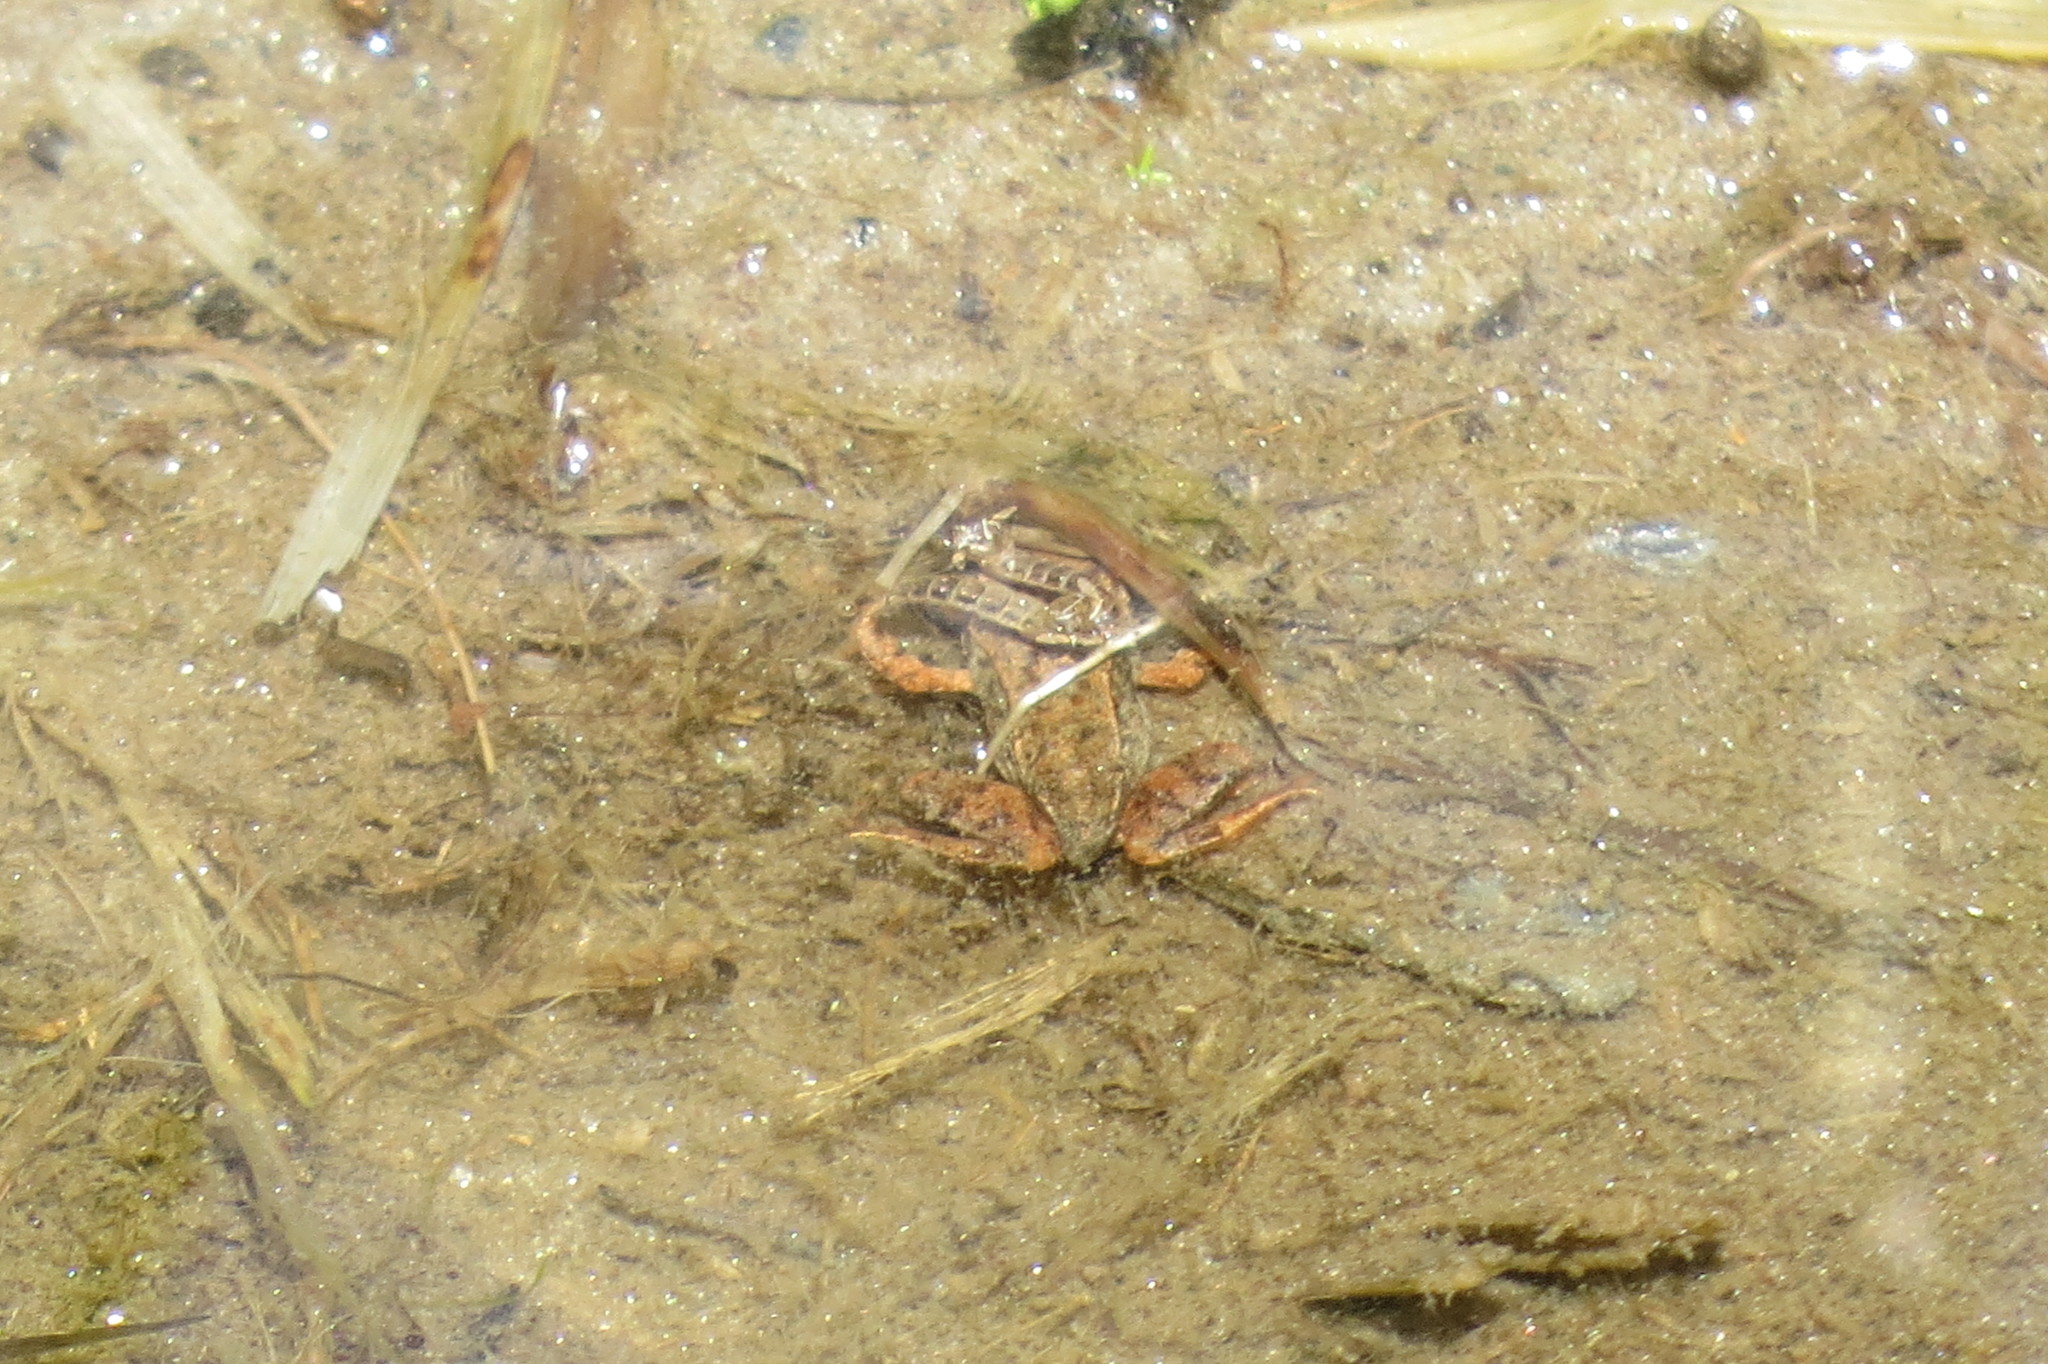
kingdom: Animalia
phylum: Chordata
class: Amphibia
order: Anura
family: Ranidae
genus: Rana
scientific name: Rana temporaria
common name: Common frog
